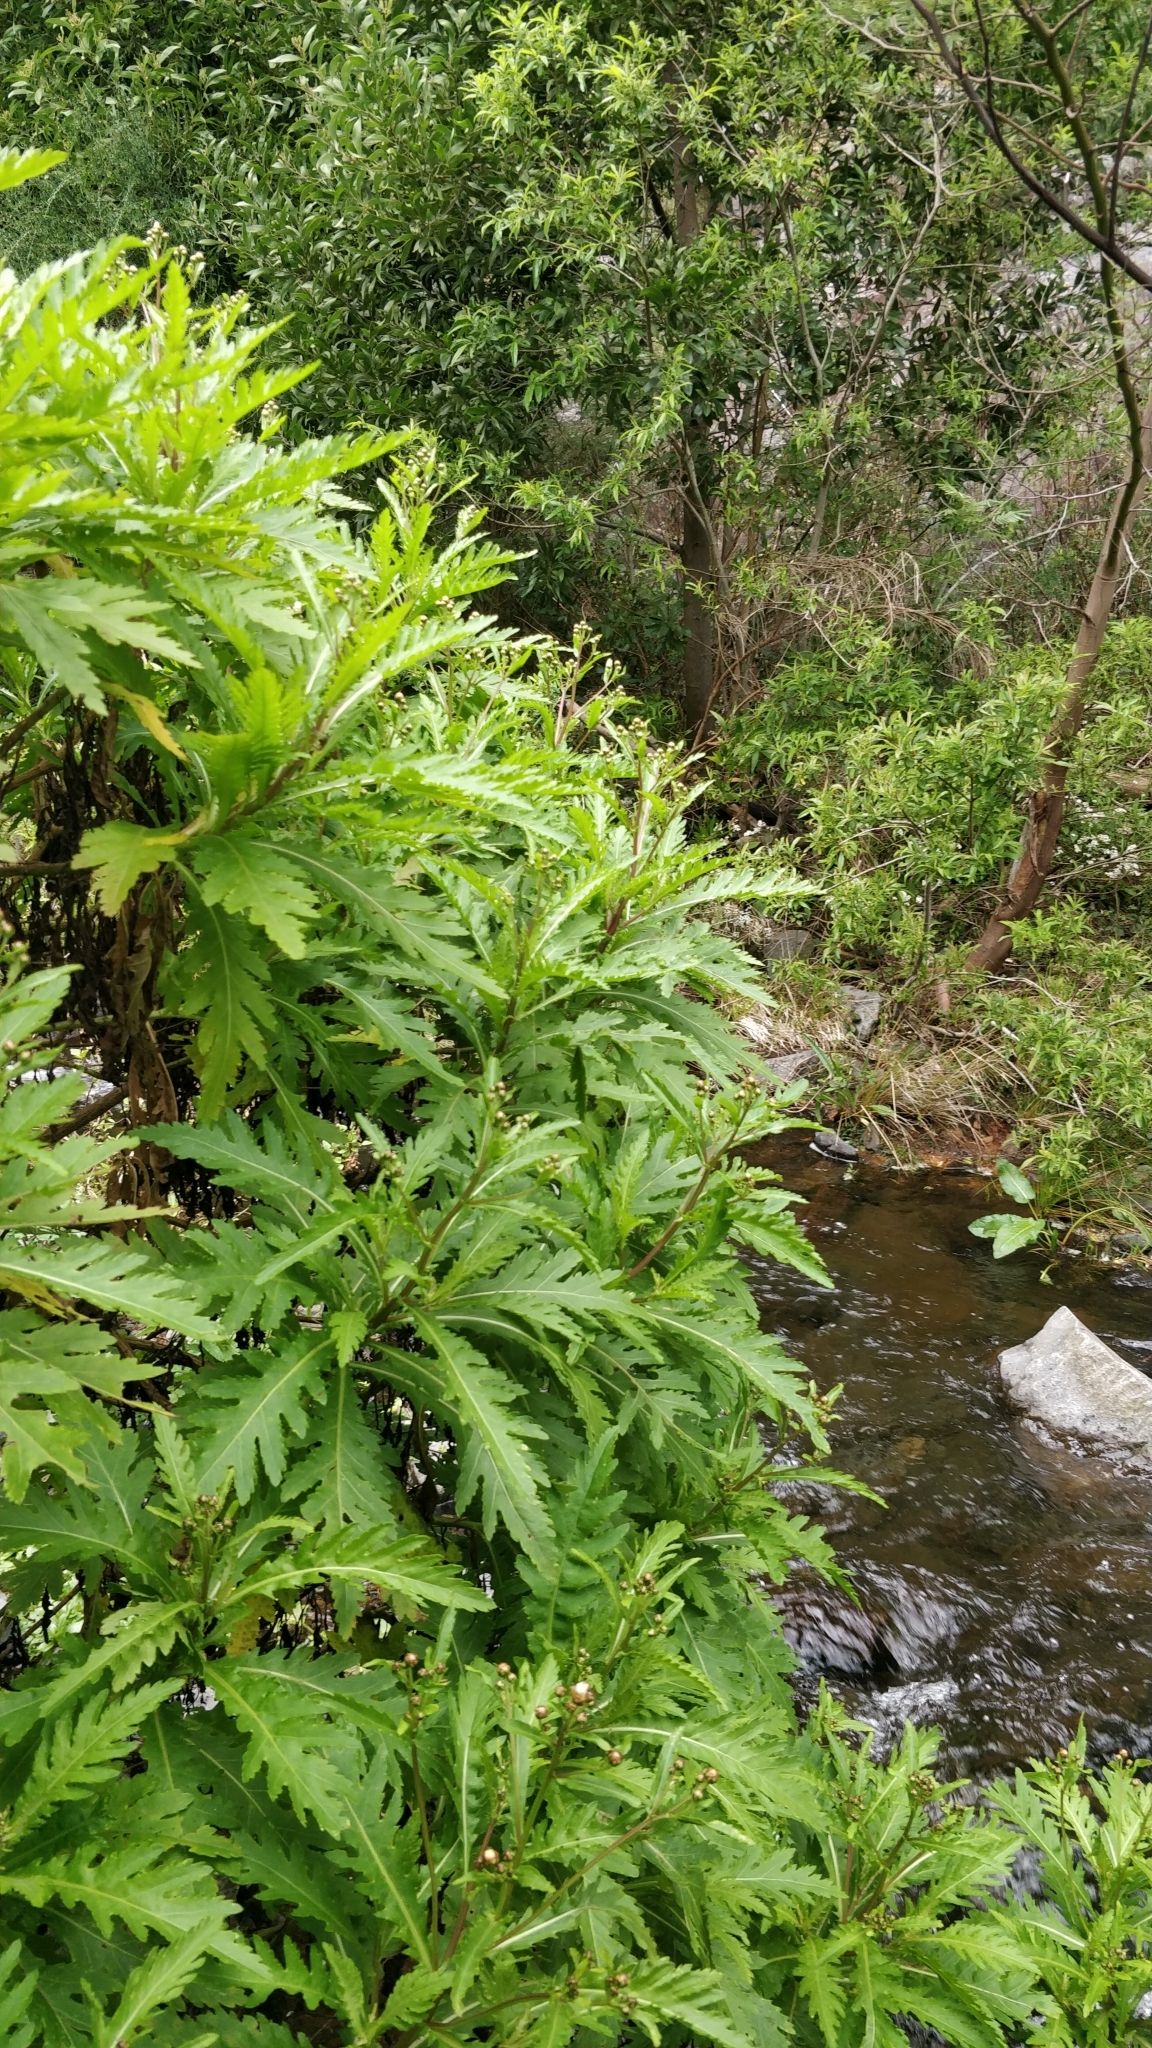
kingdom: Plantae
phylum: Tracheophyta
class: Magnoliopsida
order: Asterales
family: Asteraceae
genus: Argyranthemum
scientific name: Argyranthemum pinnatifidum
